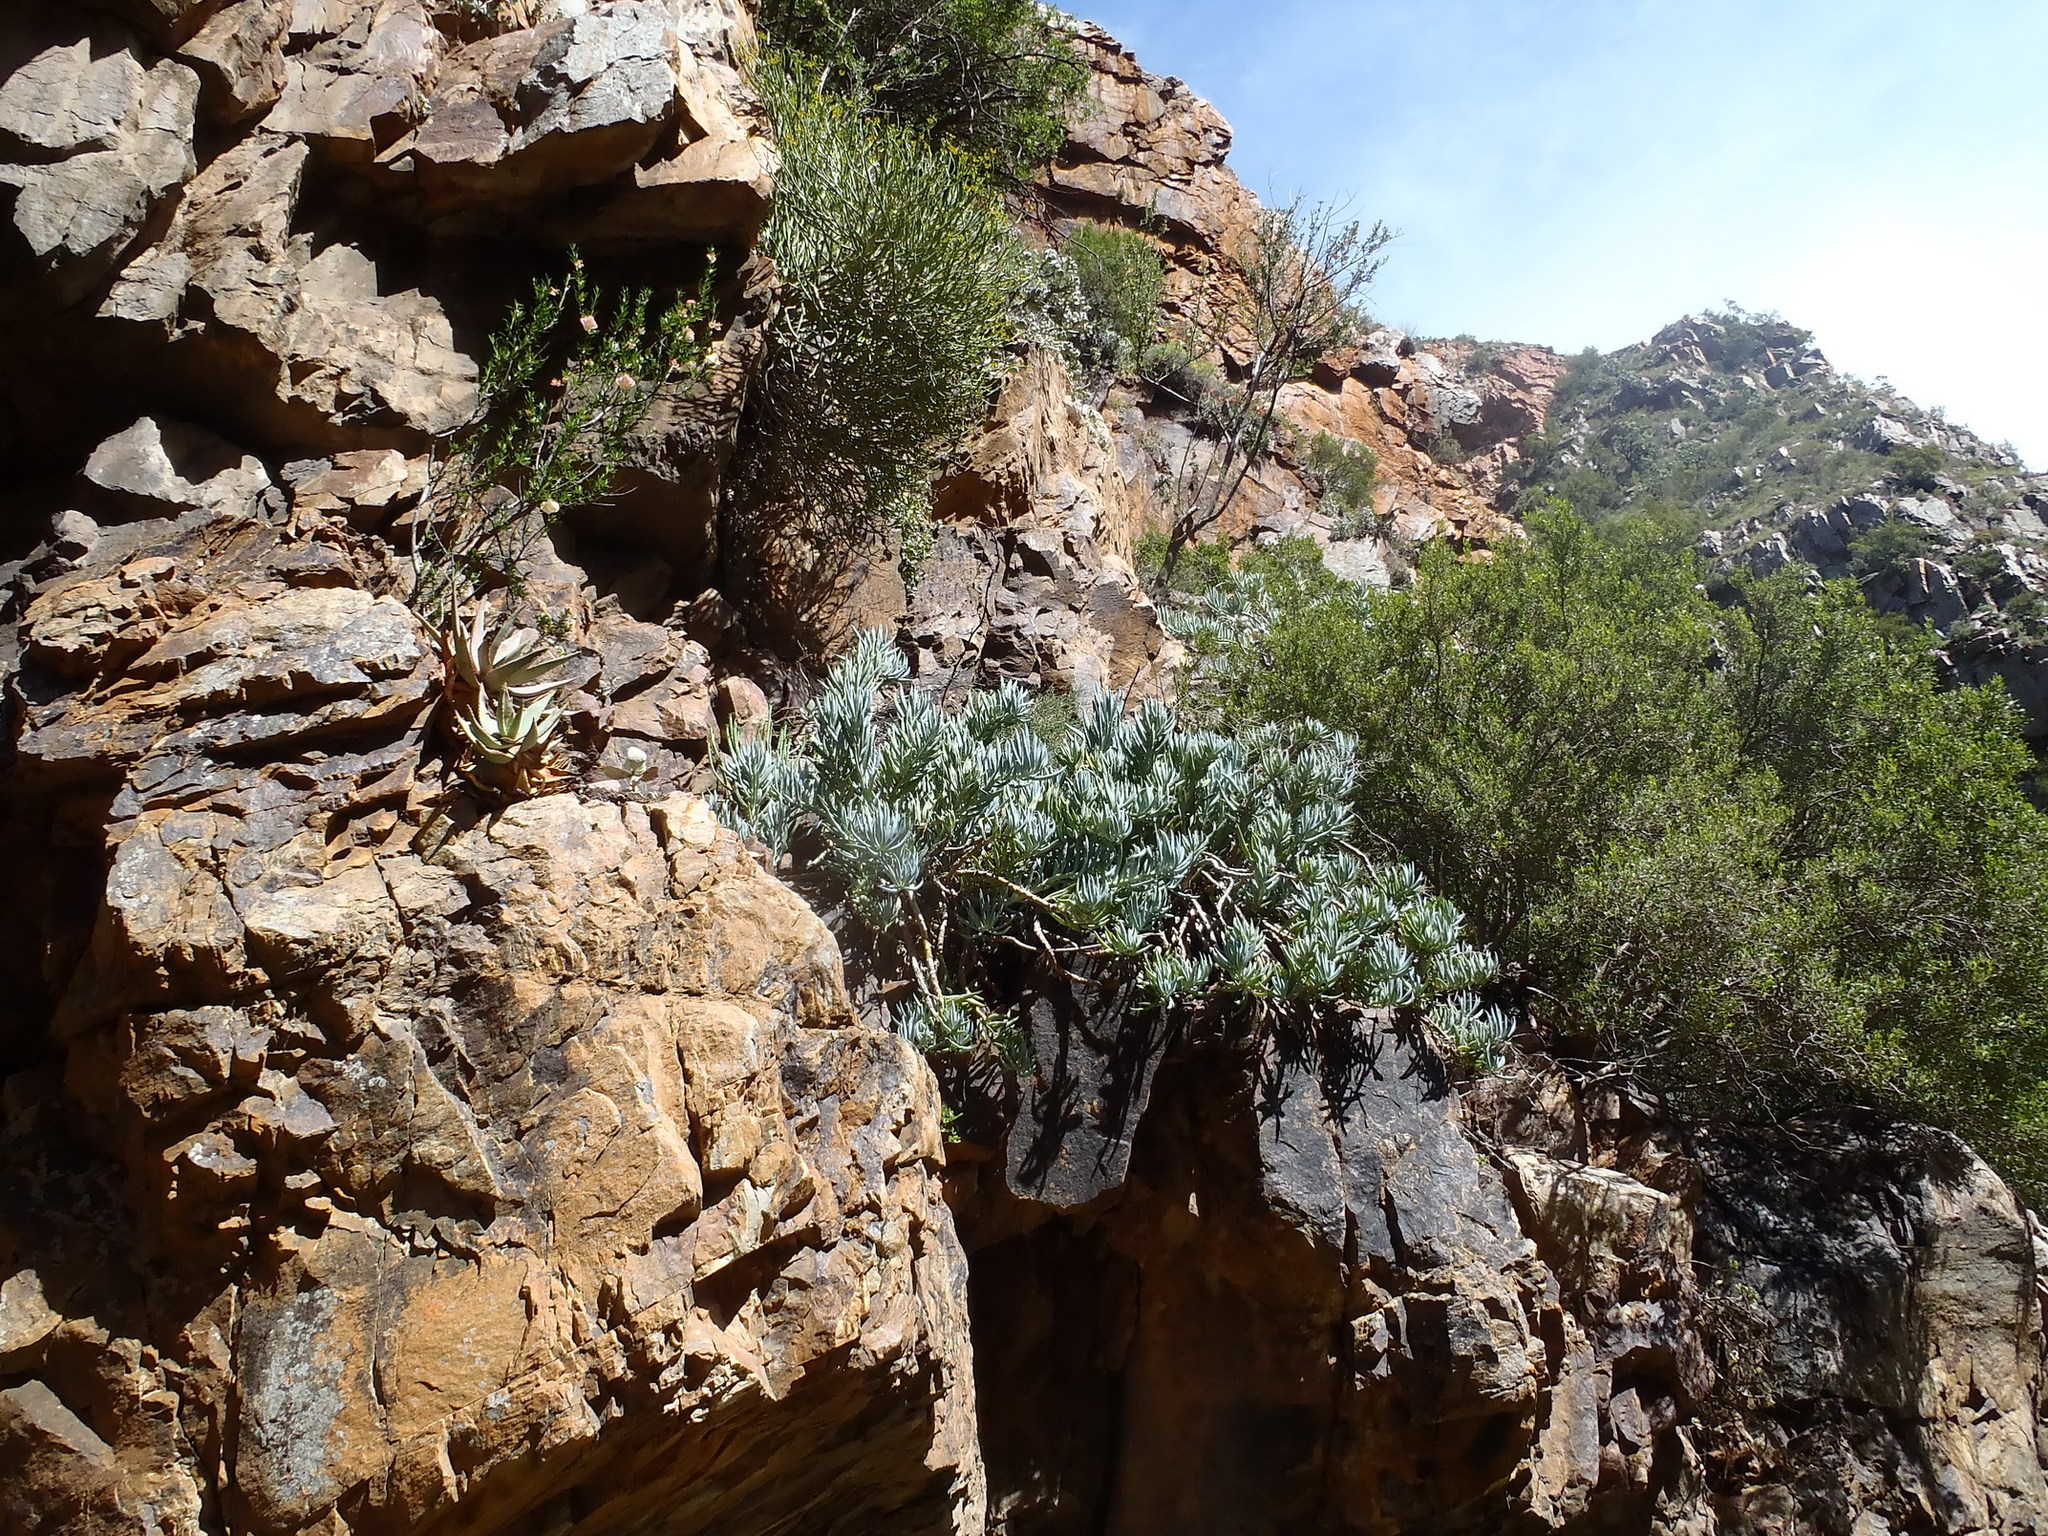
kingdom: Plantae
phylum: Tracheophyta
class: Magnoliopsida
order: Asterales
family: Asteraceae
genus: Curio
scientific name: Curio ficoides
